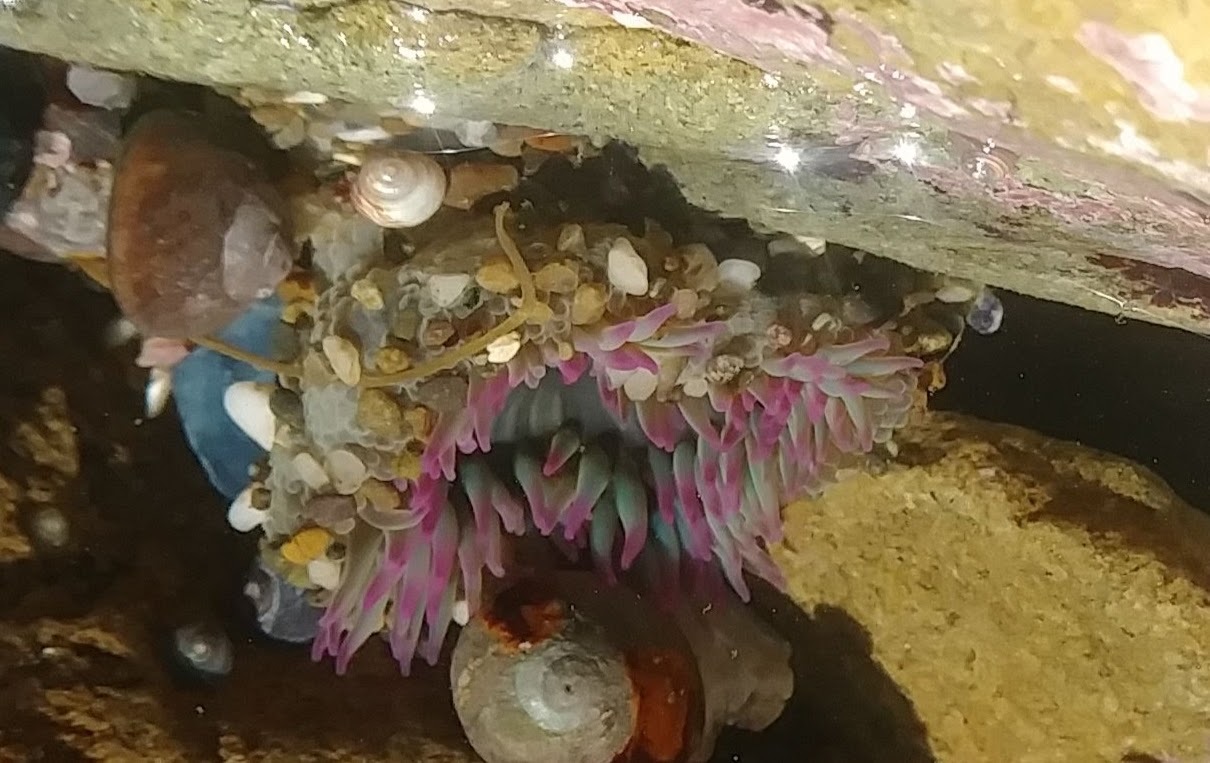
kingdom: Animalia
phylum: Cnidaria
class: Anthozoa
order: Actiniaria
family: Actiniidae
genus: Anthopleura
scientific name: Anthopleura elegantissima
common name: Clonal anemone
